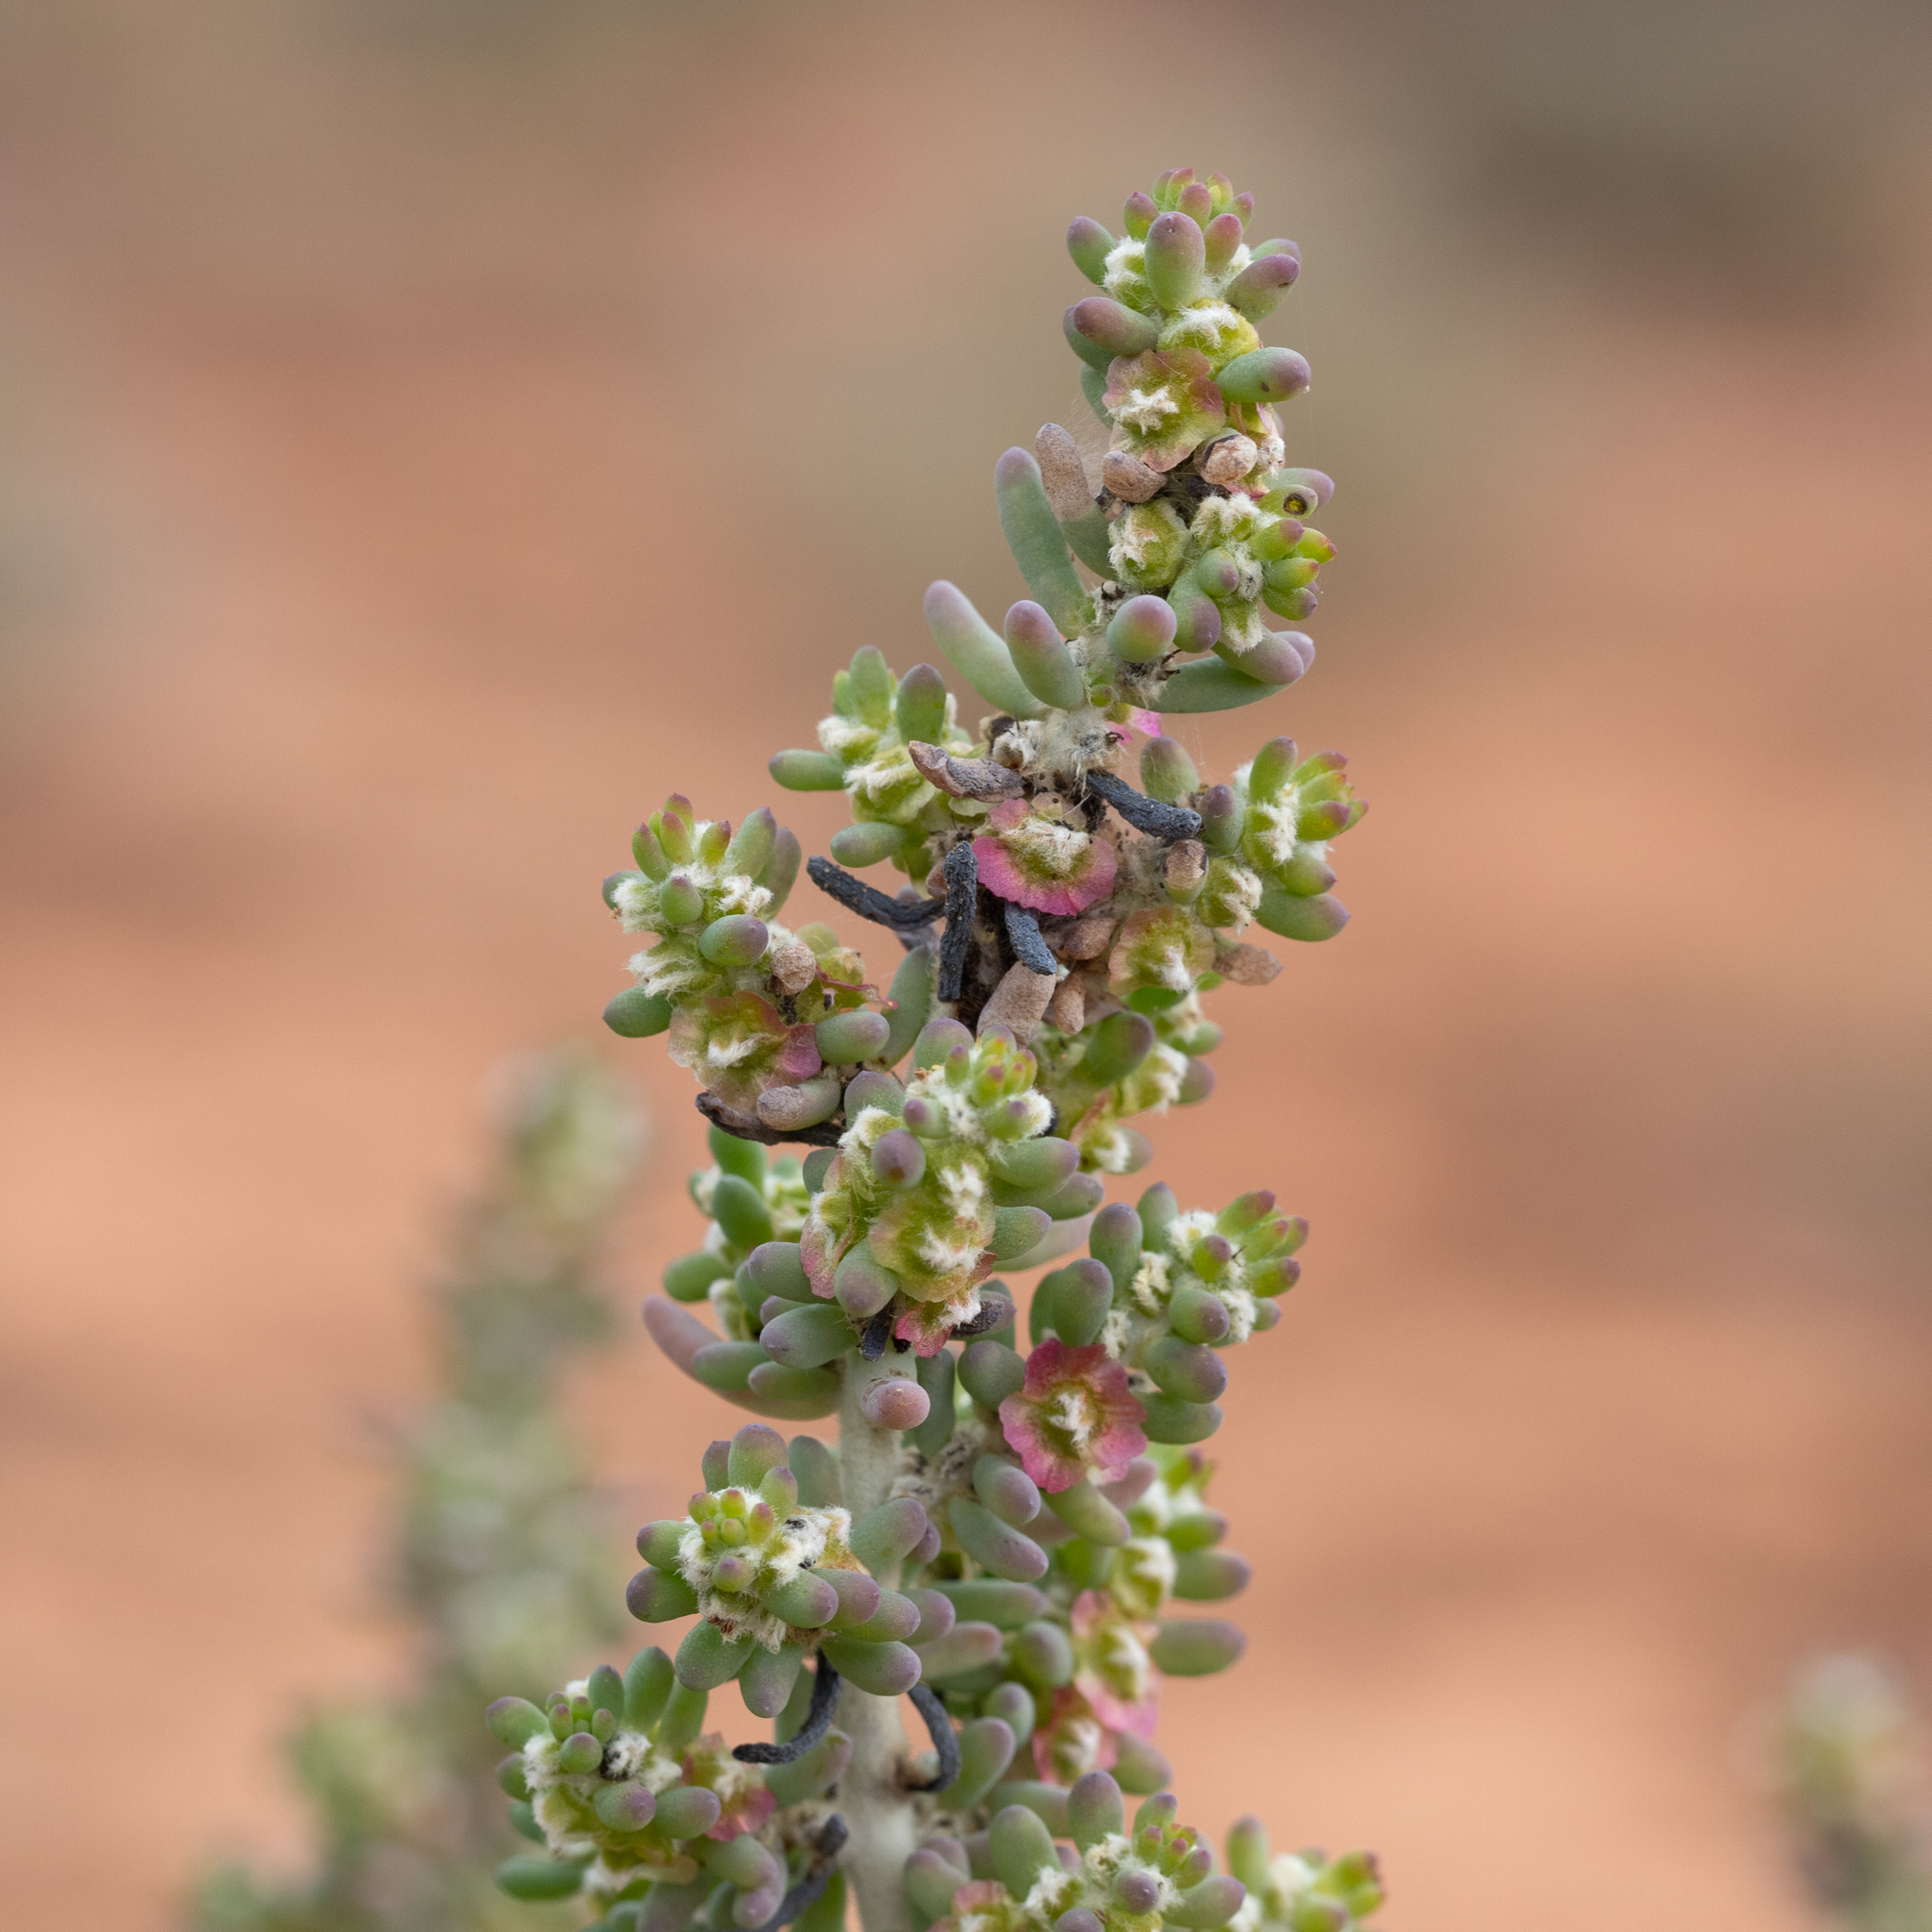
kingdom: Plantae
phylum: Tracheophyta
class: Magnoliopsida
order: Caryophyllales
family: Amaranthaceae
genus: Maireana
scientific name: Maireana pentatropis
